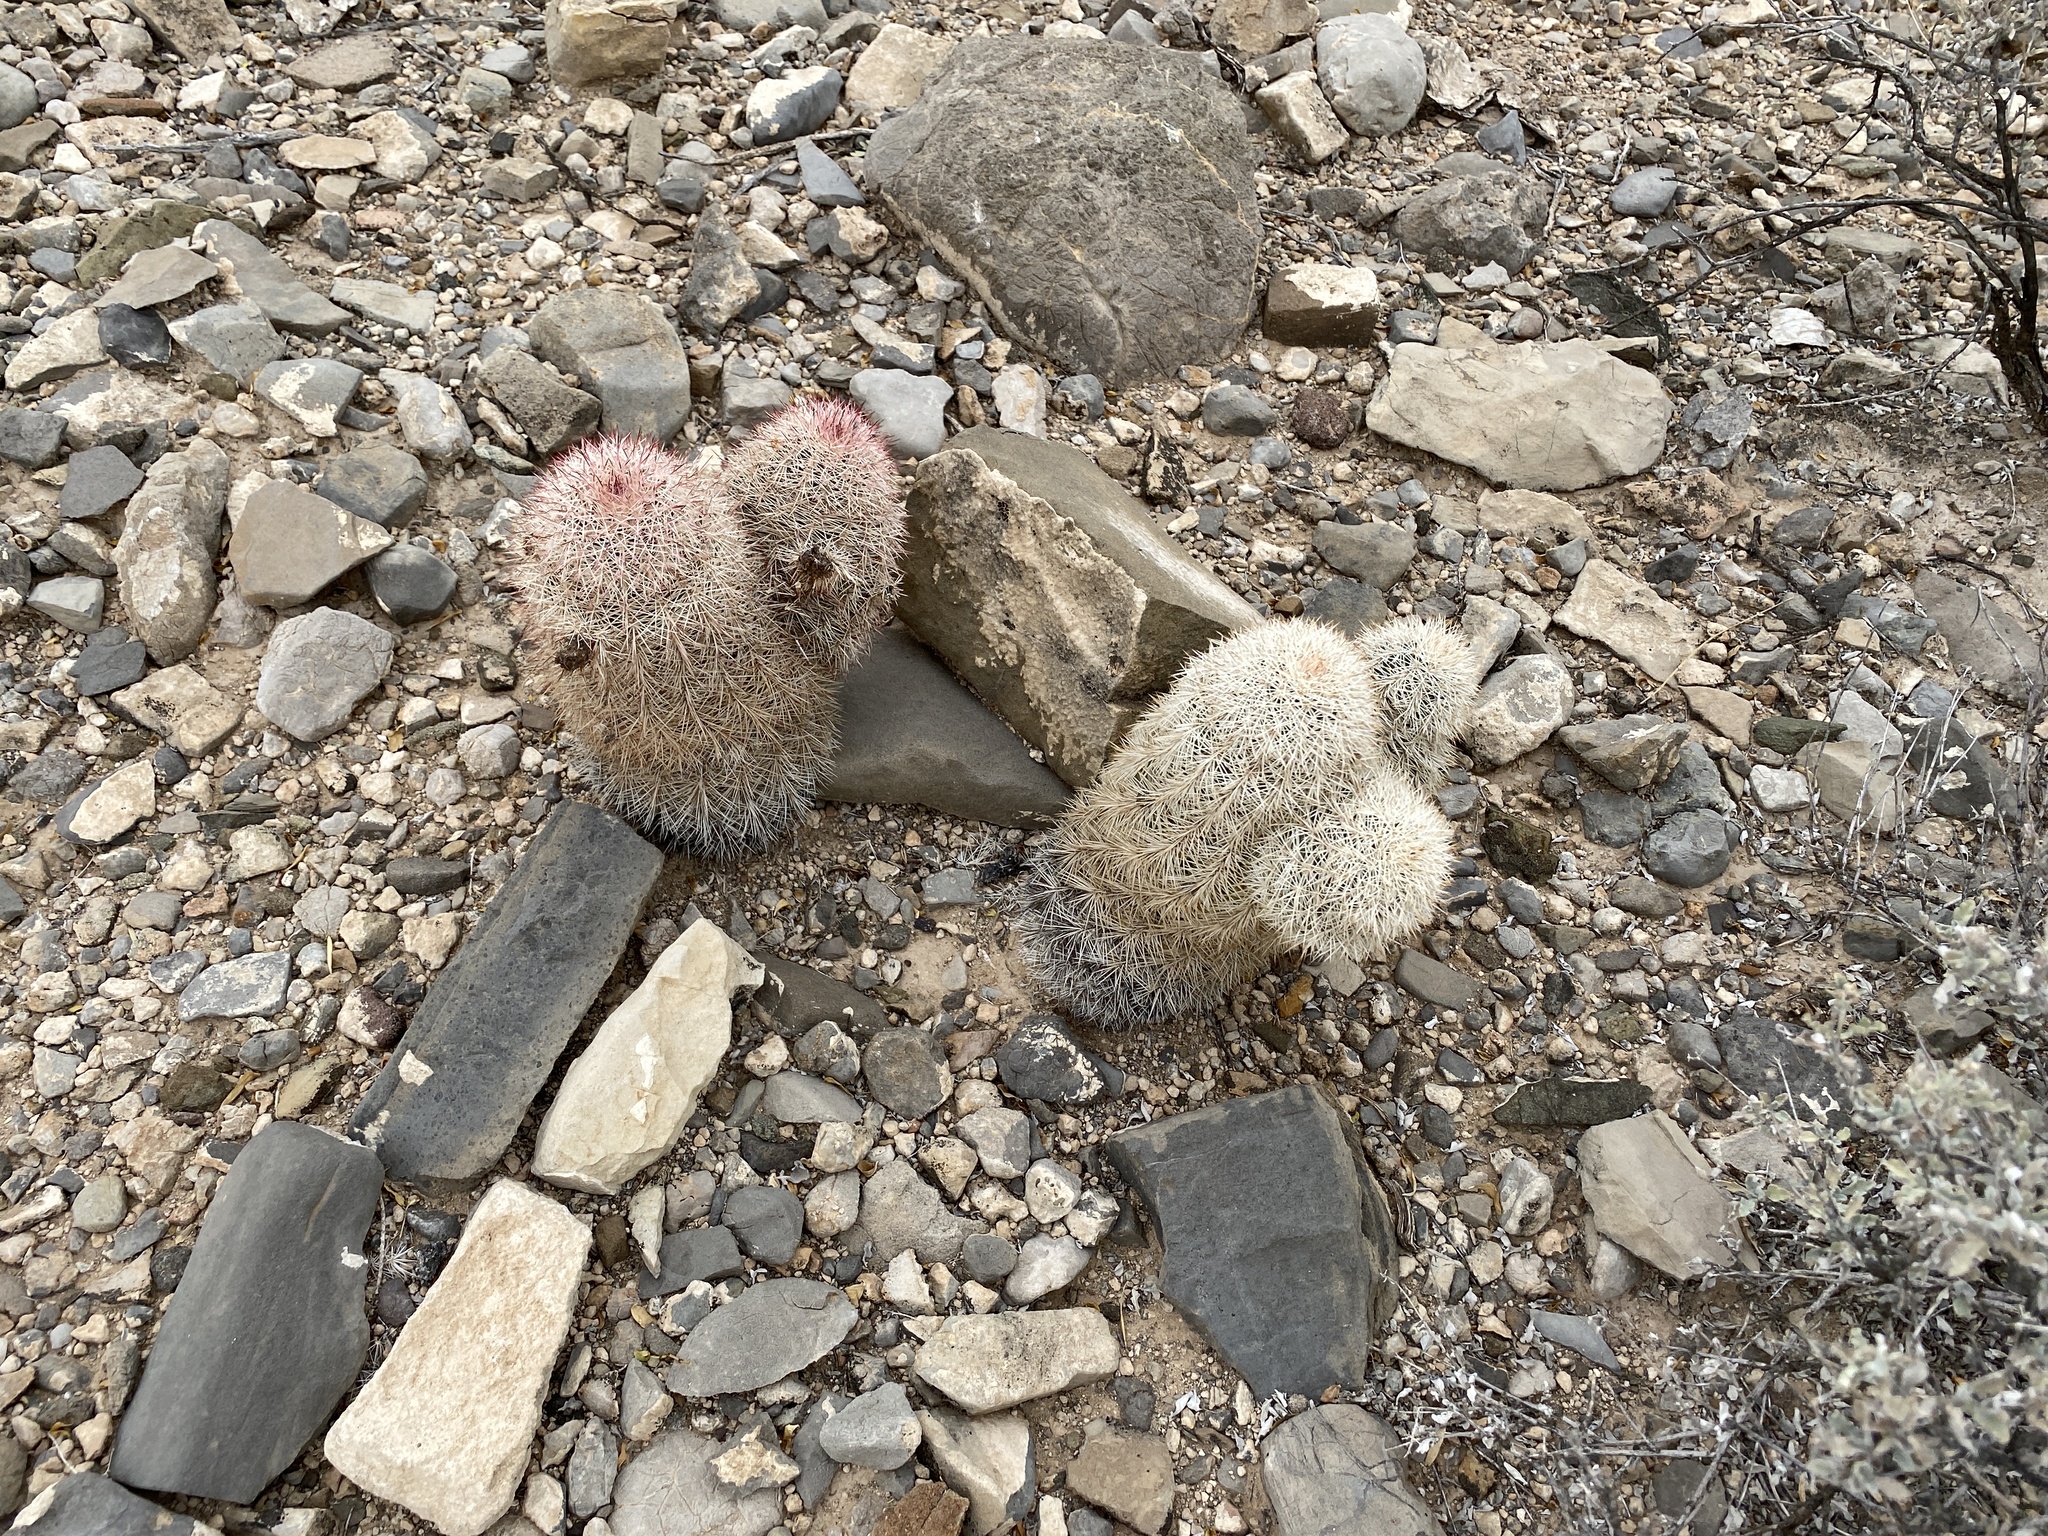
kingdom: Plantae
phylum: Tracheophyta
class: Magnoliopsida
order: Caryophyllales
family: Cactaceae
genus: Echinocereus
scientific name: Echinocereus dasyacanthus
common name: Spiny hedgehog cactus
